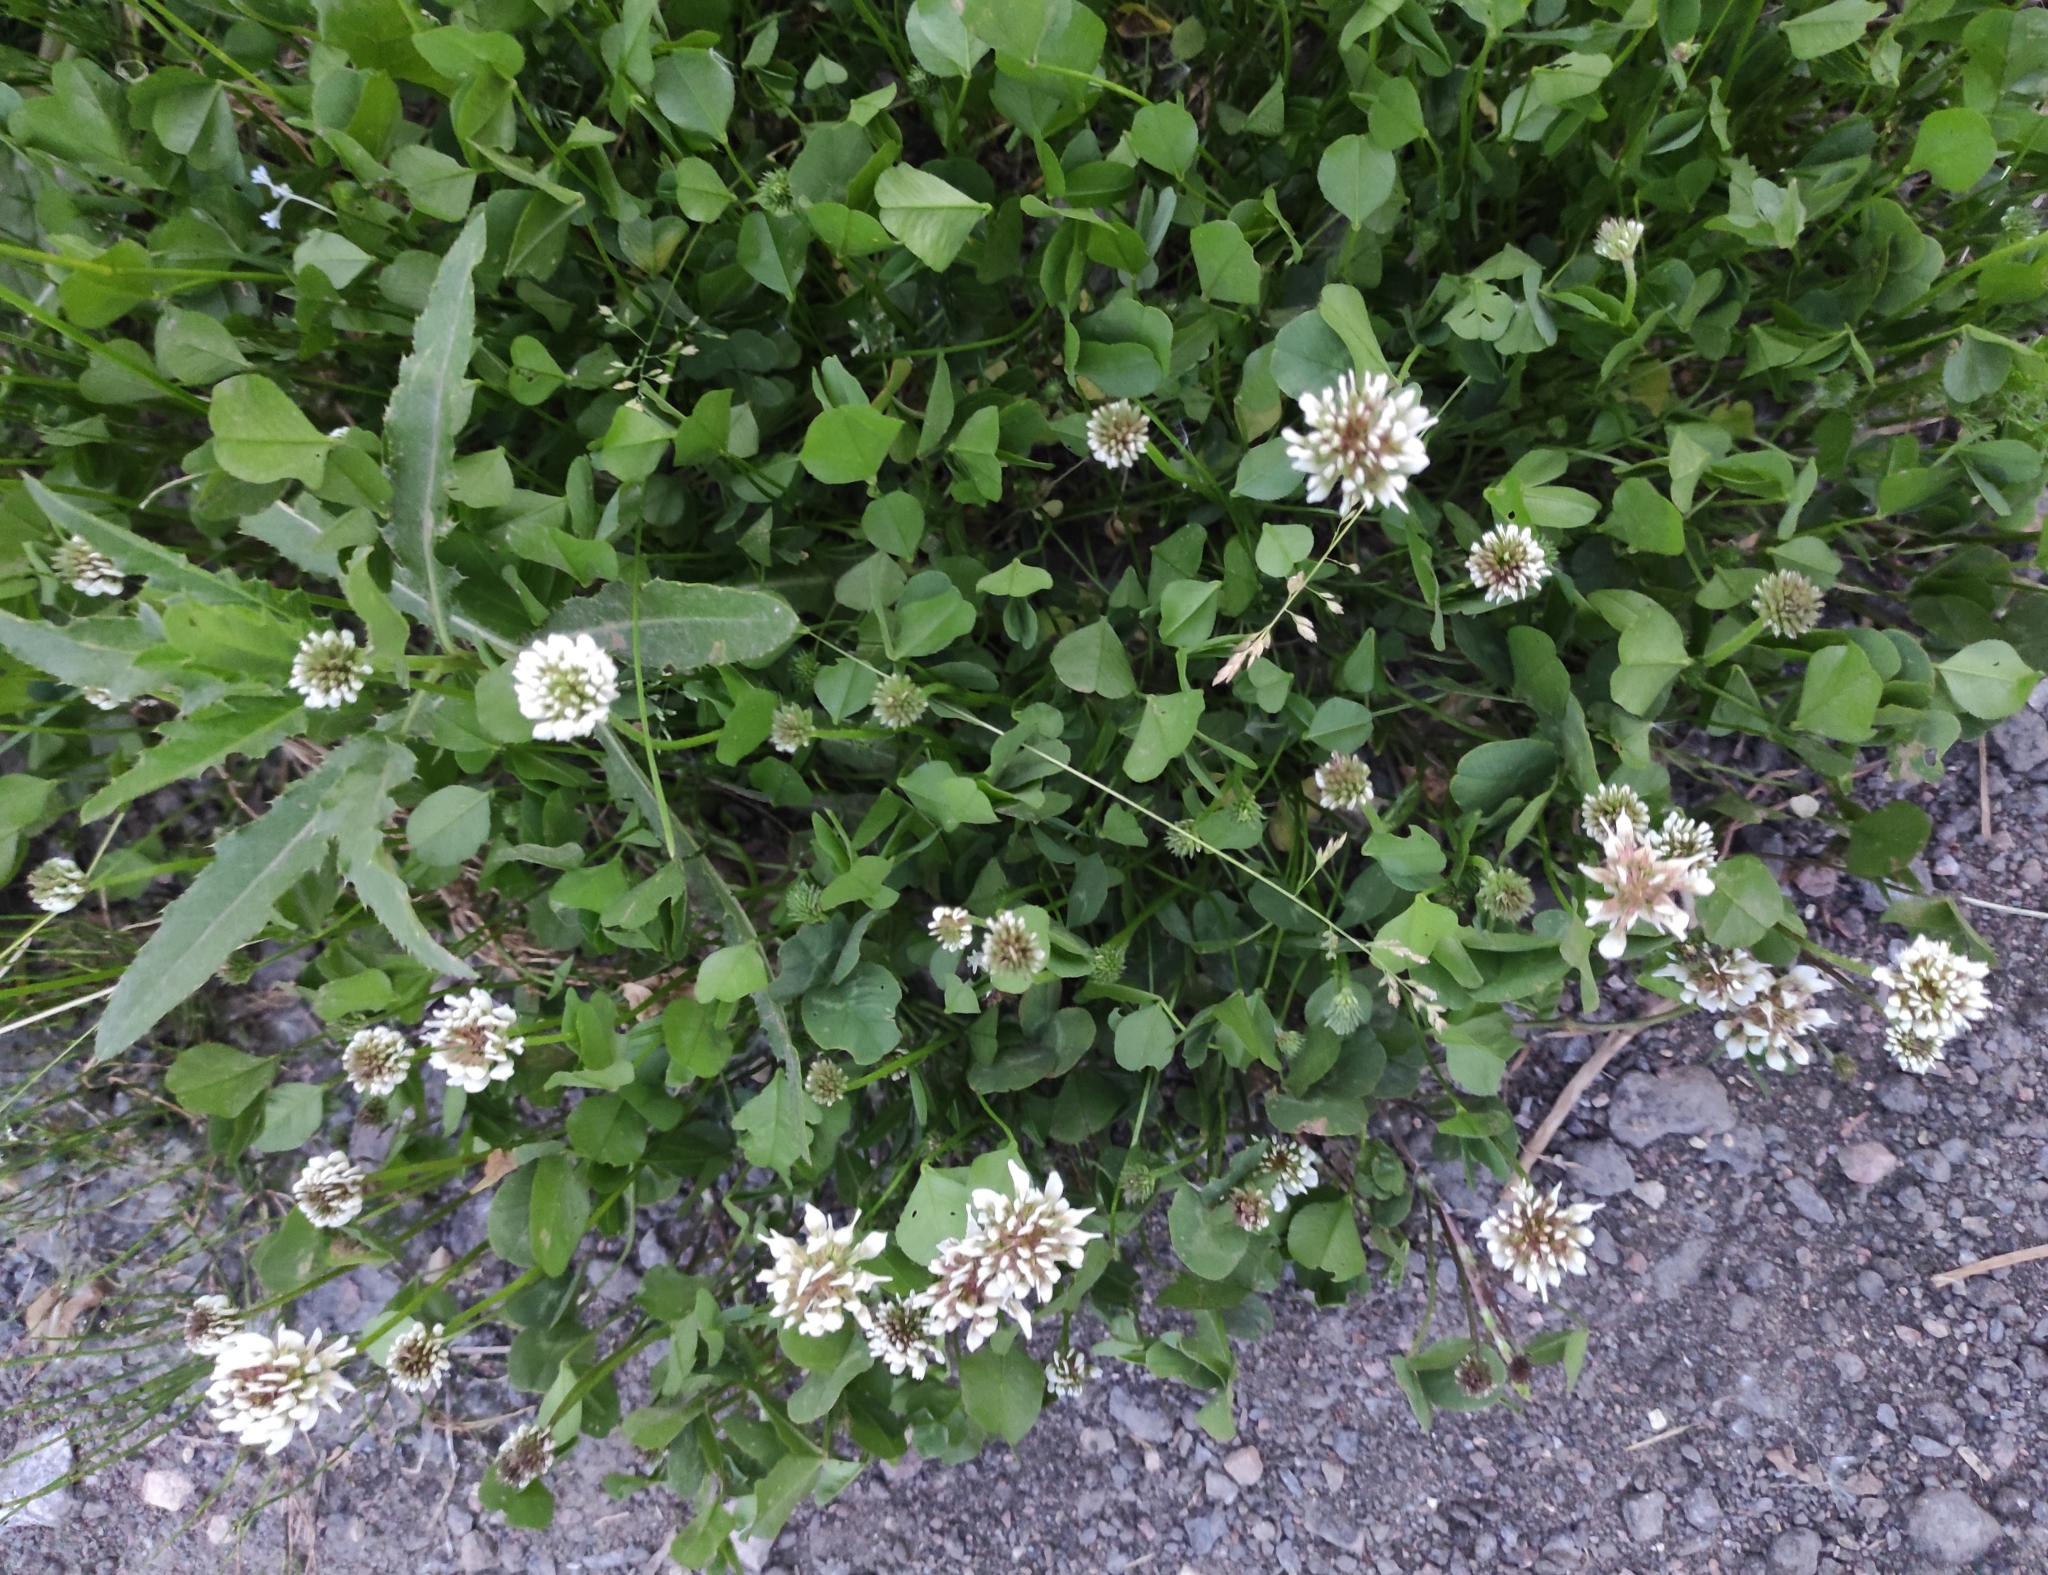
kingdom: Plantae
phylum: Tracheophyta
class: Magnoliopsida
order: Fabales
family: Fabaceae
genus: Trifolium
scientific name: Trifolium repens
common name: White clover
